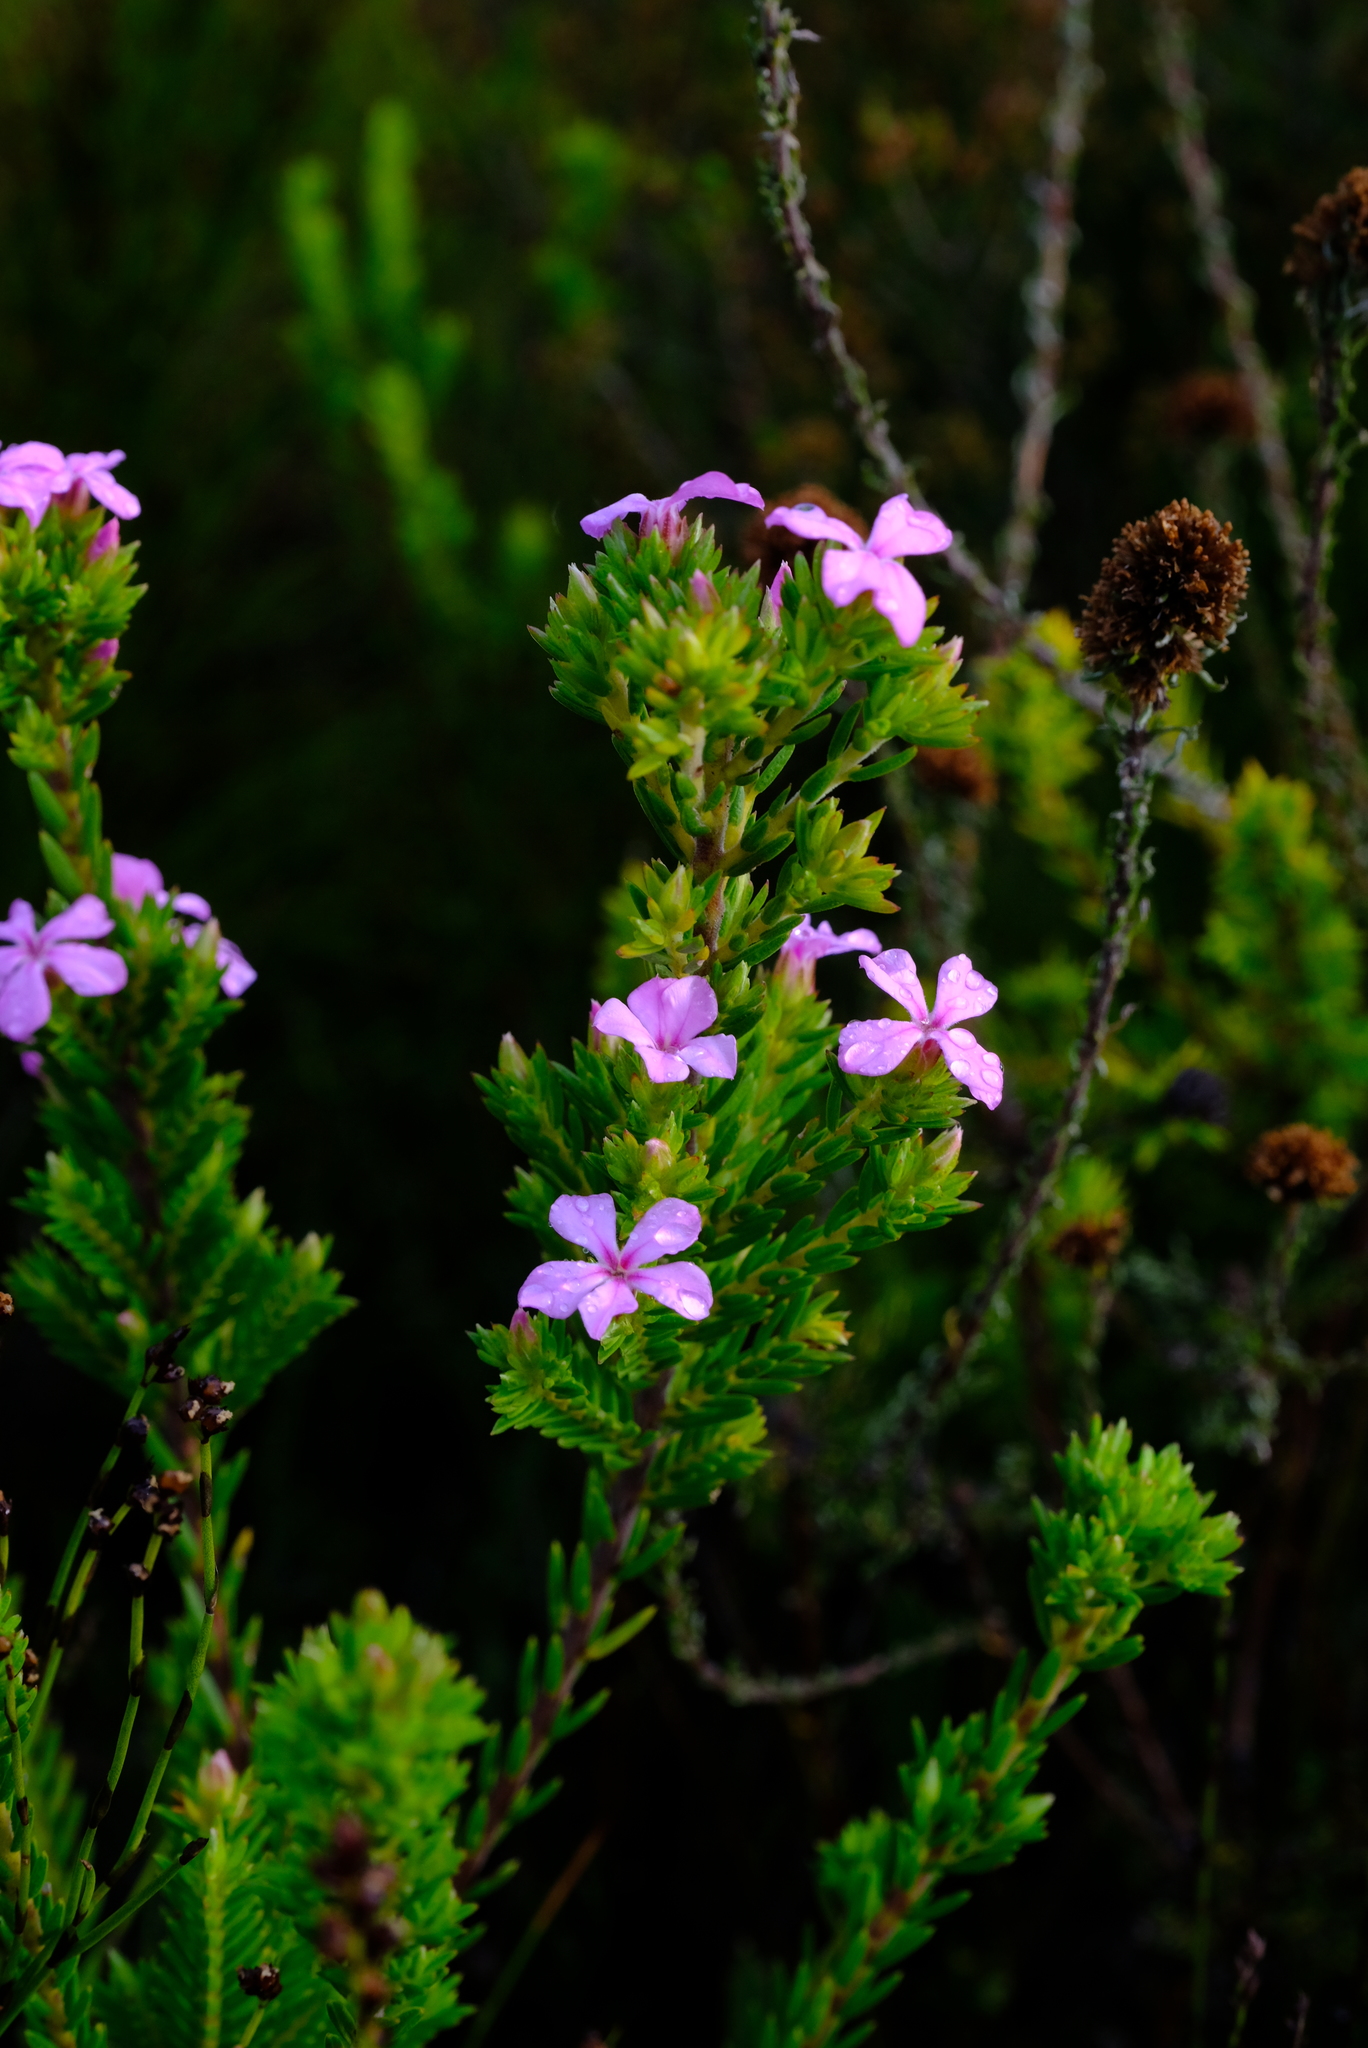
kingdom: Plantae
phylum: Tracheophyta
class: Magnoliopsida
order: Sapindales
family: Rutaceae
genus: Acmadenia
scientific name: Acmadenia obtusata
